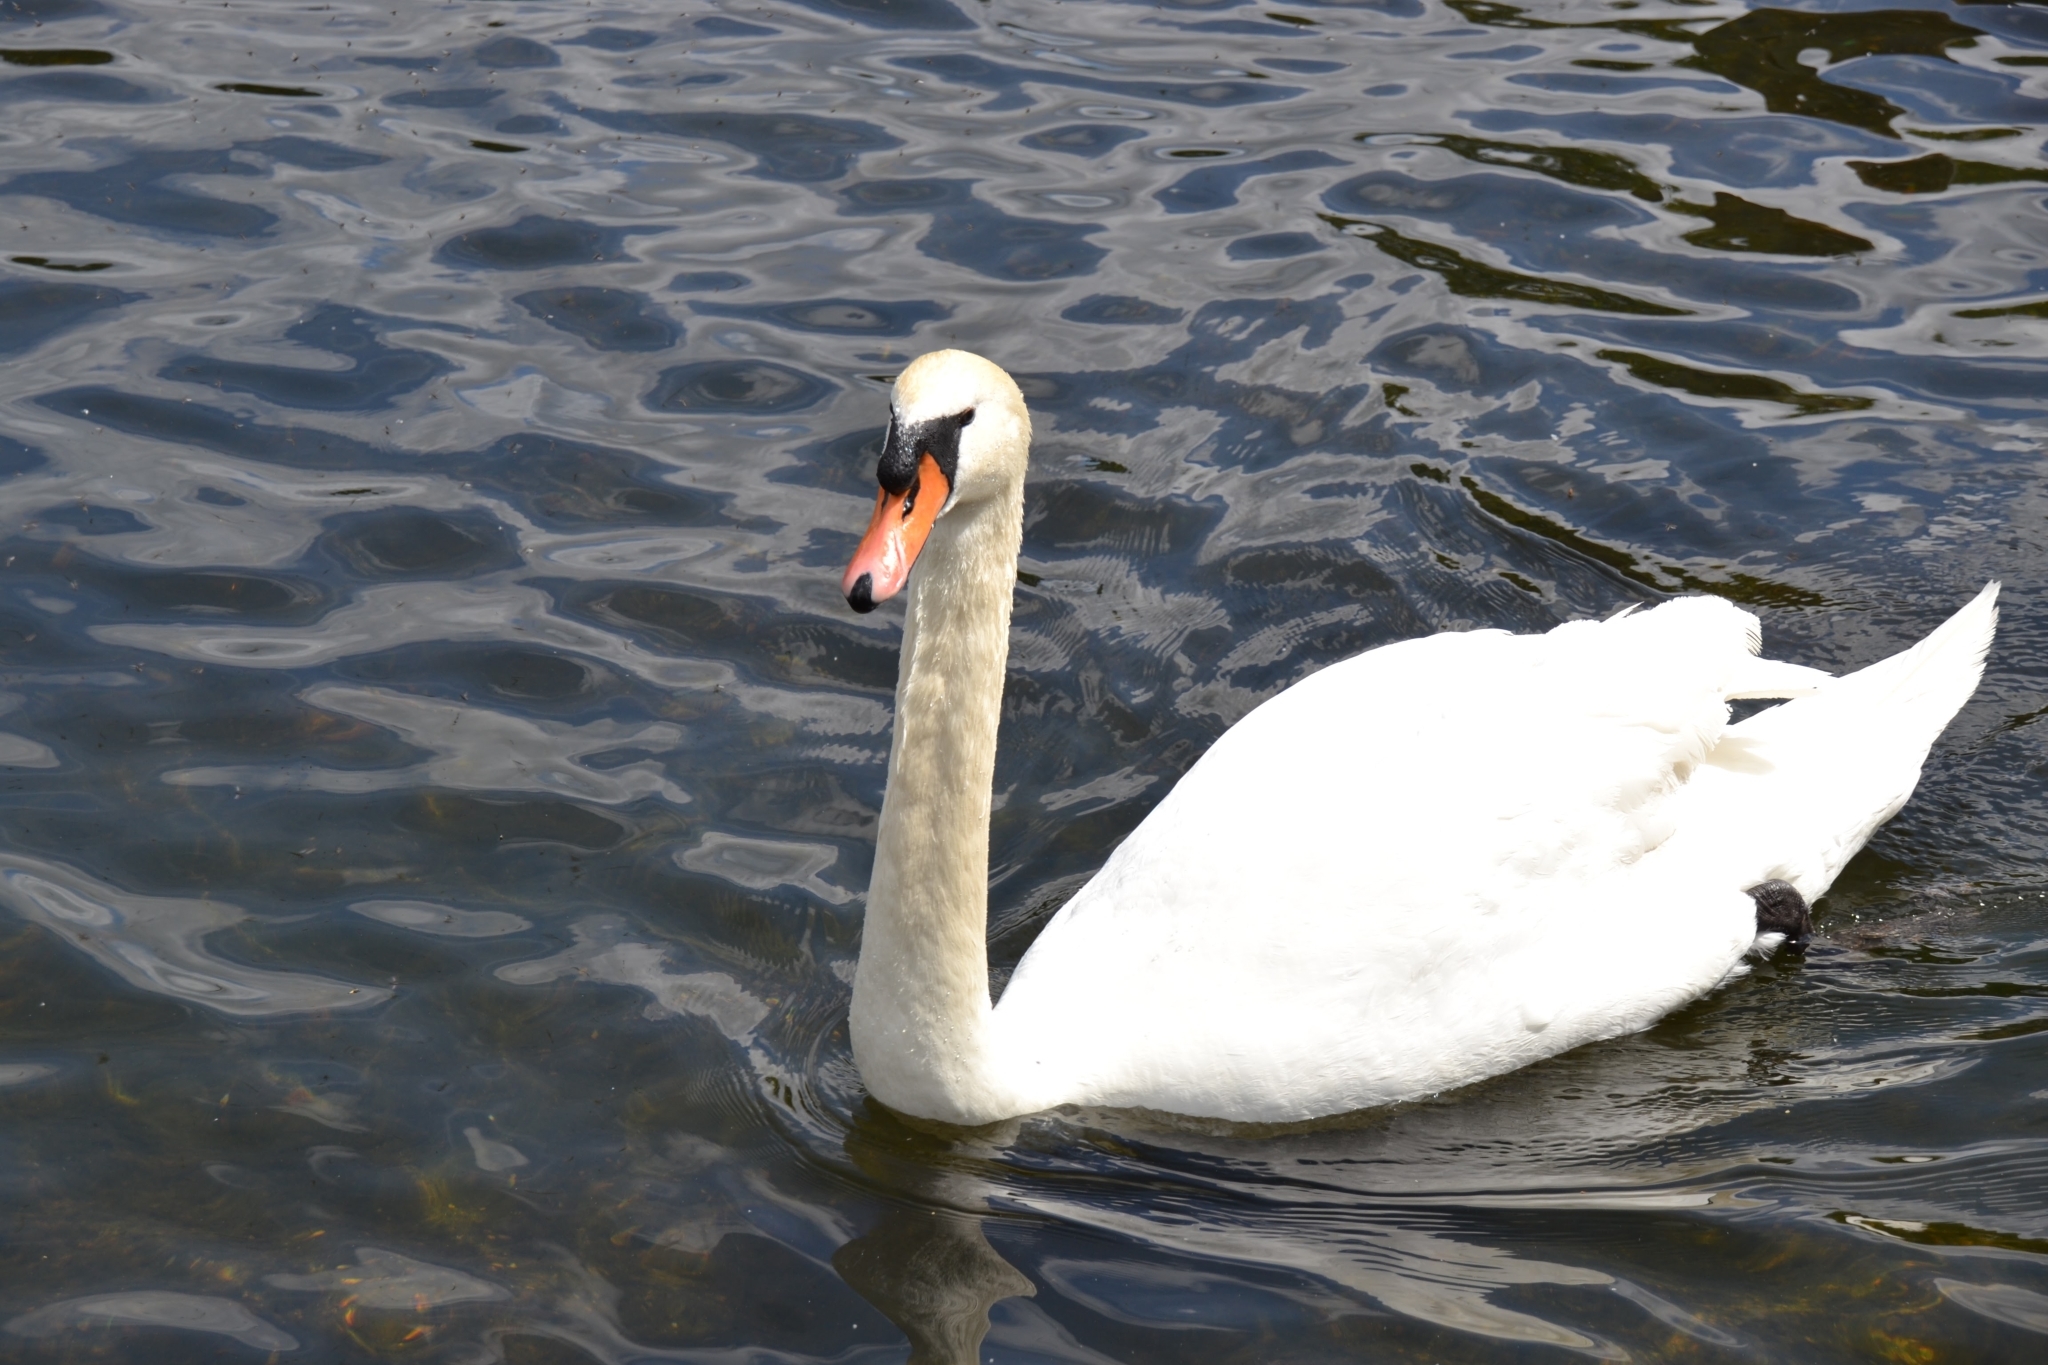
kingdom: Animalia
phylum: Chordata
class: Aves
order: Anseriformes
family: Anatidae
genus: Cygnus
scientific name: Cygnus olor
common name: Mute swan
